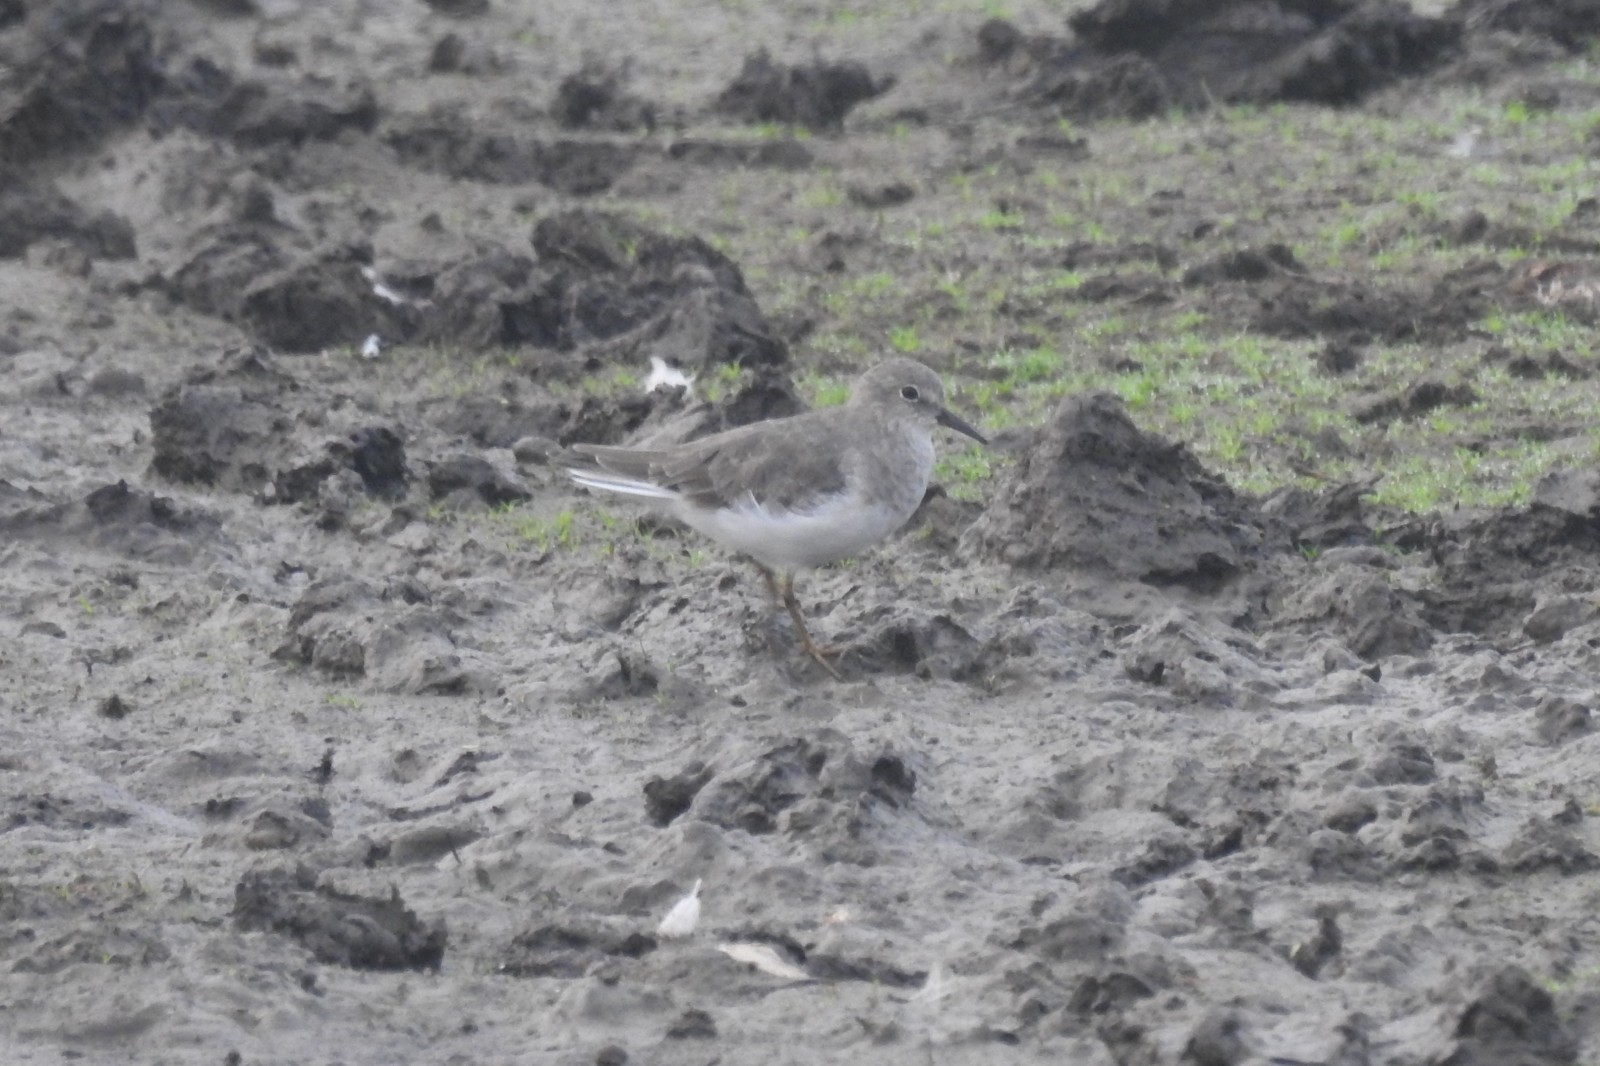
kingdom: Animalia
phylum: Chordata
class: Aves
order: Charadriiformes
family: Scolopacidae
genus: Calidris
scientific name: Calidris temminckii
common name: Temminck's stint
